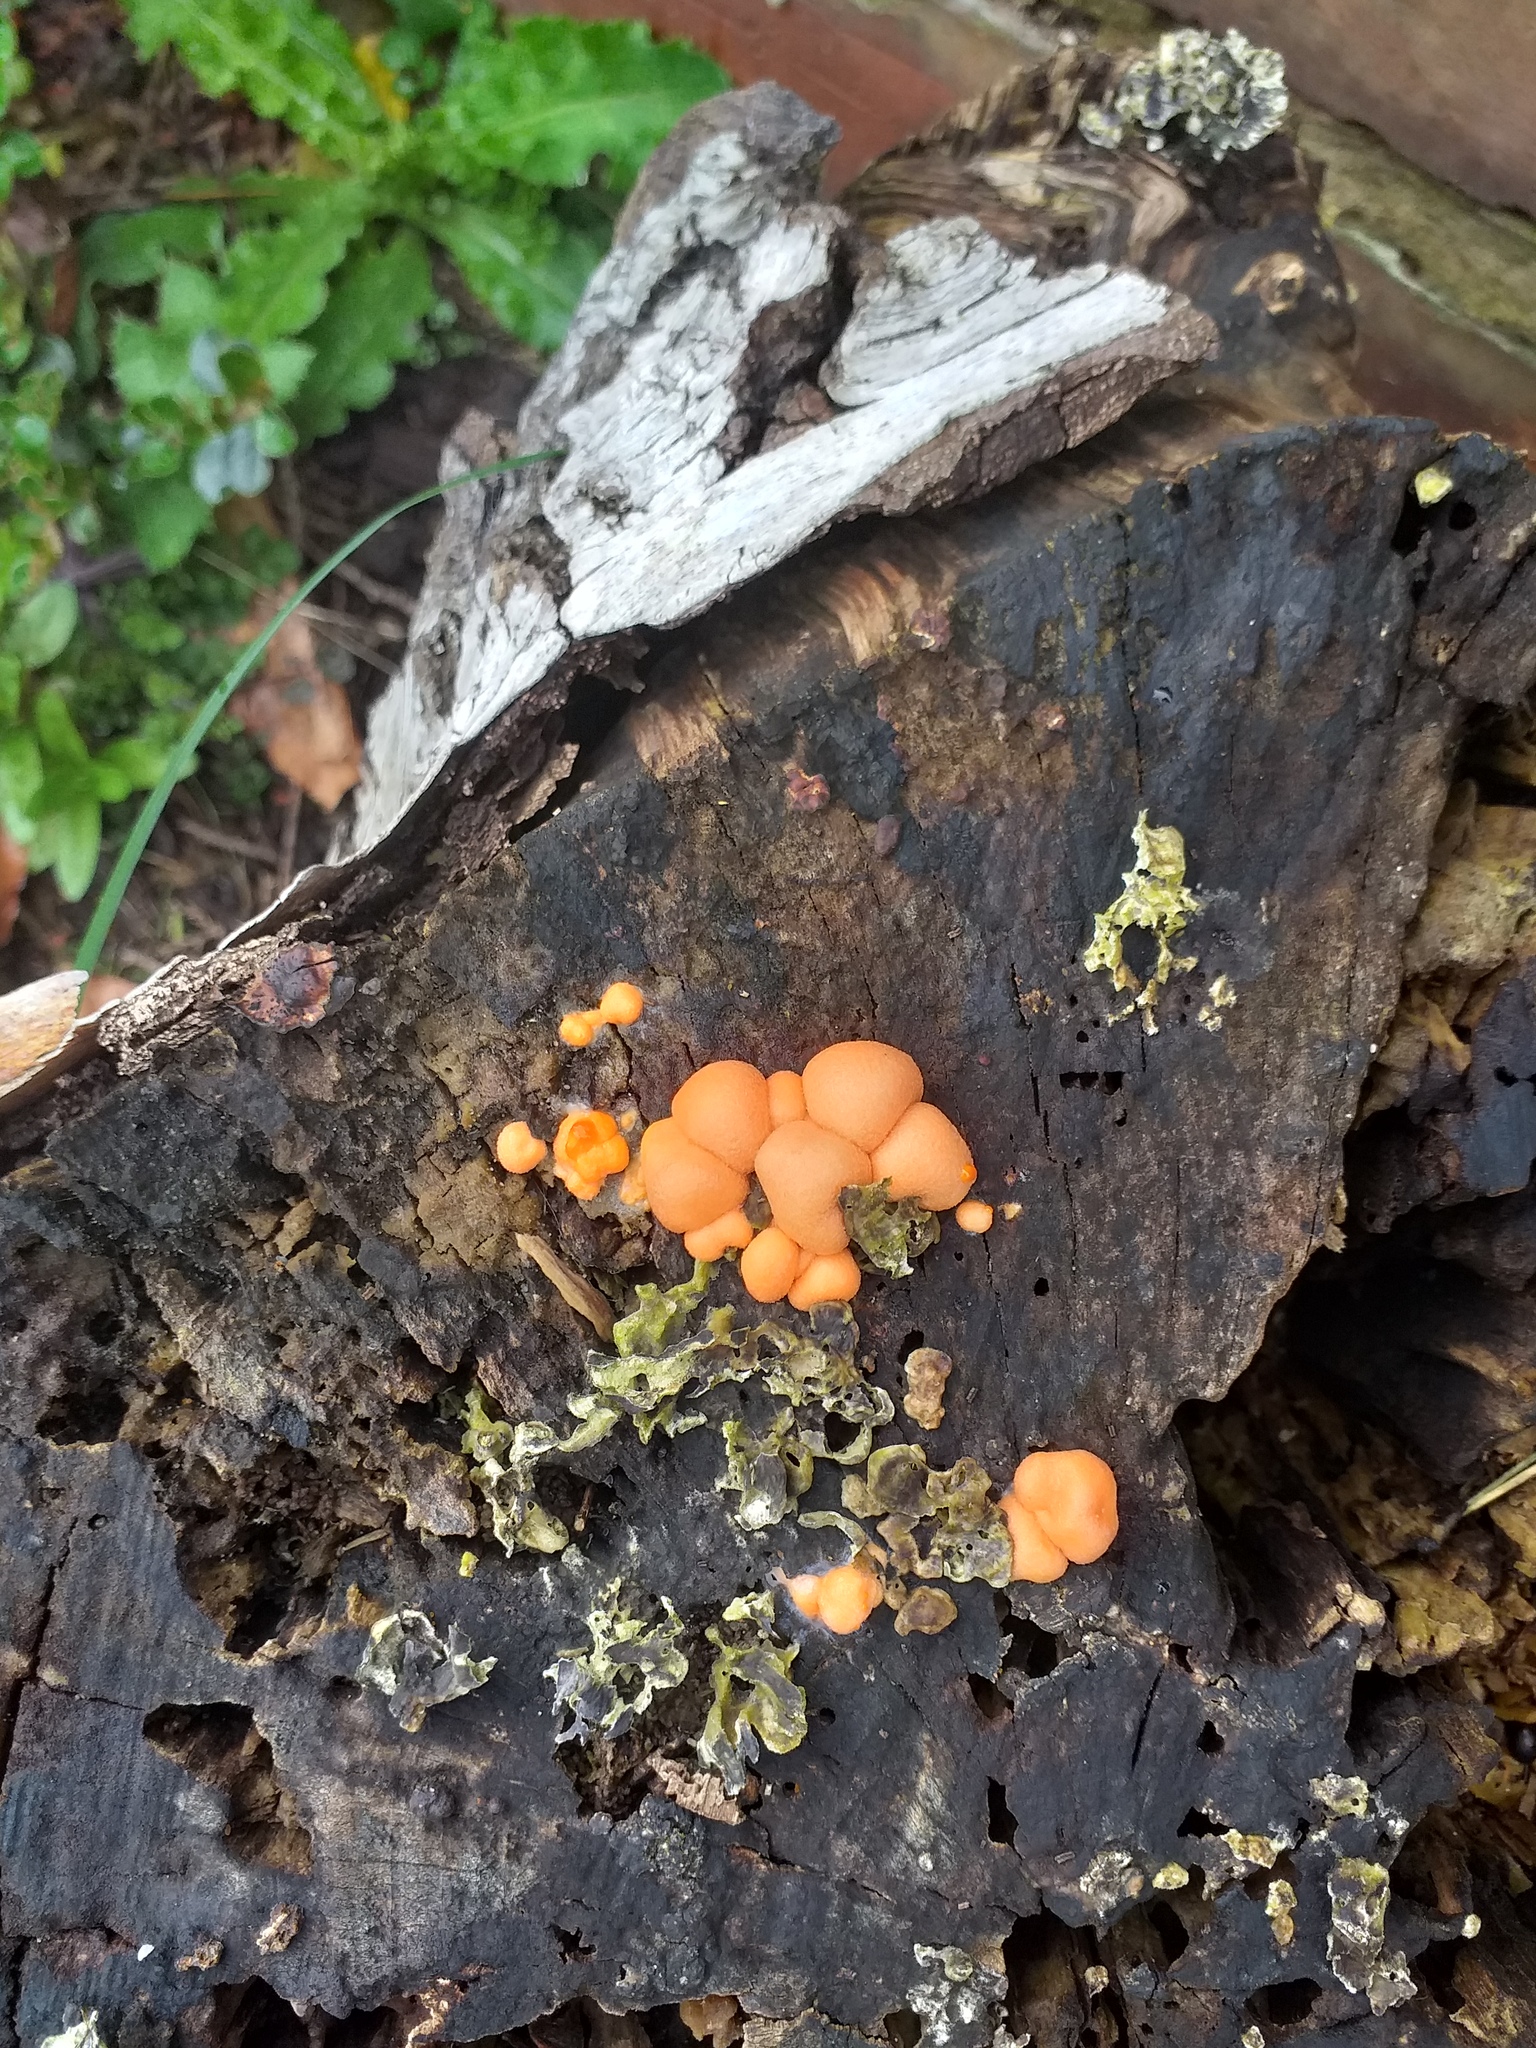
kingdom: Protozoa
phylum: Mycetozoa
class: Myxomycetes
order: Cribrariales
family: Tubiferaceae
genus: Lycogala
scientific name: Lycogala epidendrum
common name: Wolf's milk
